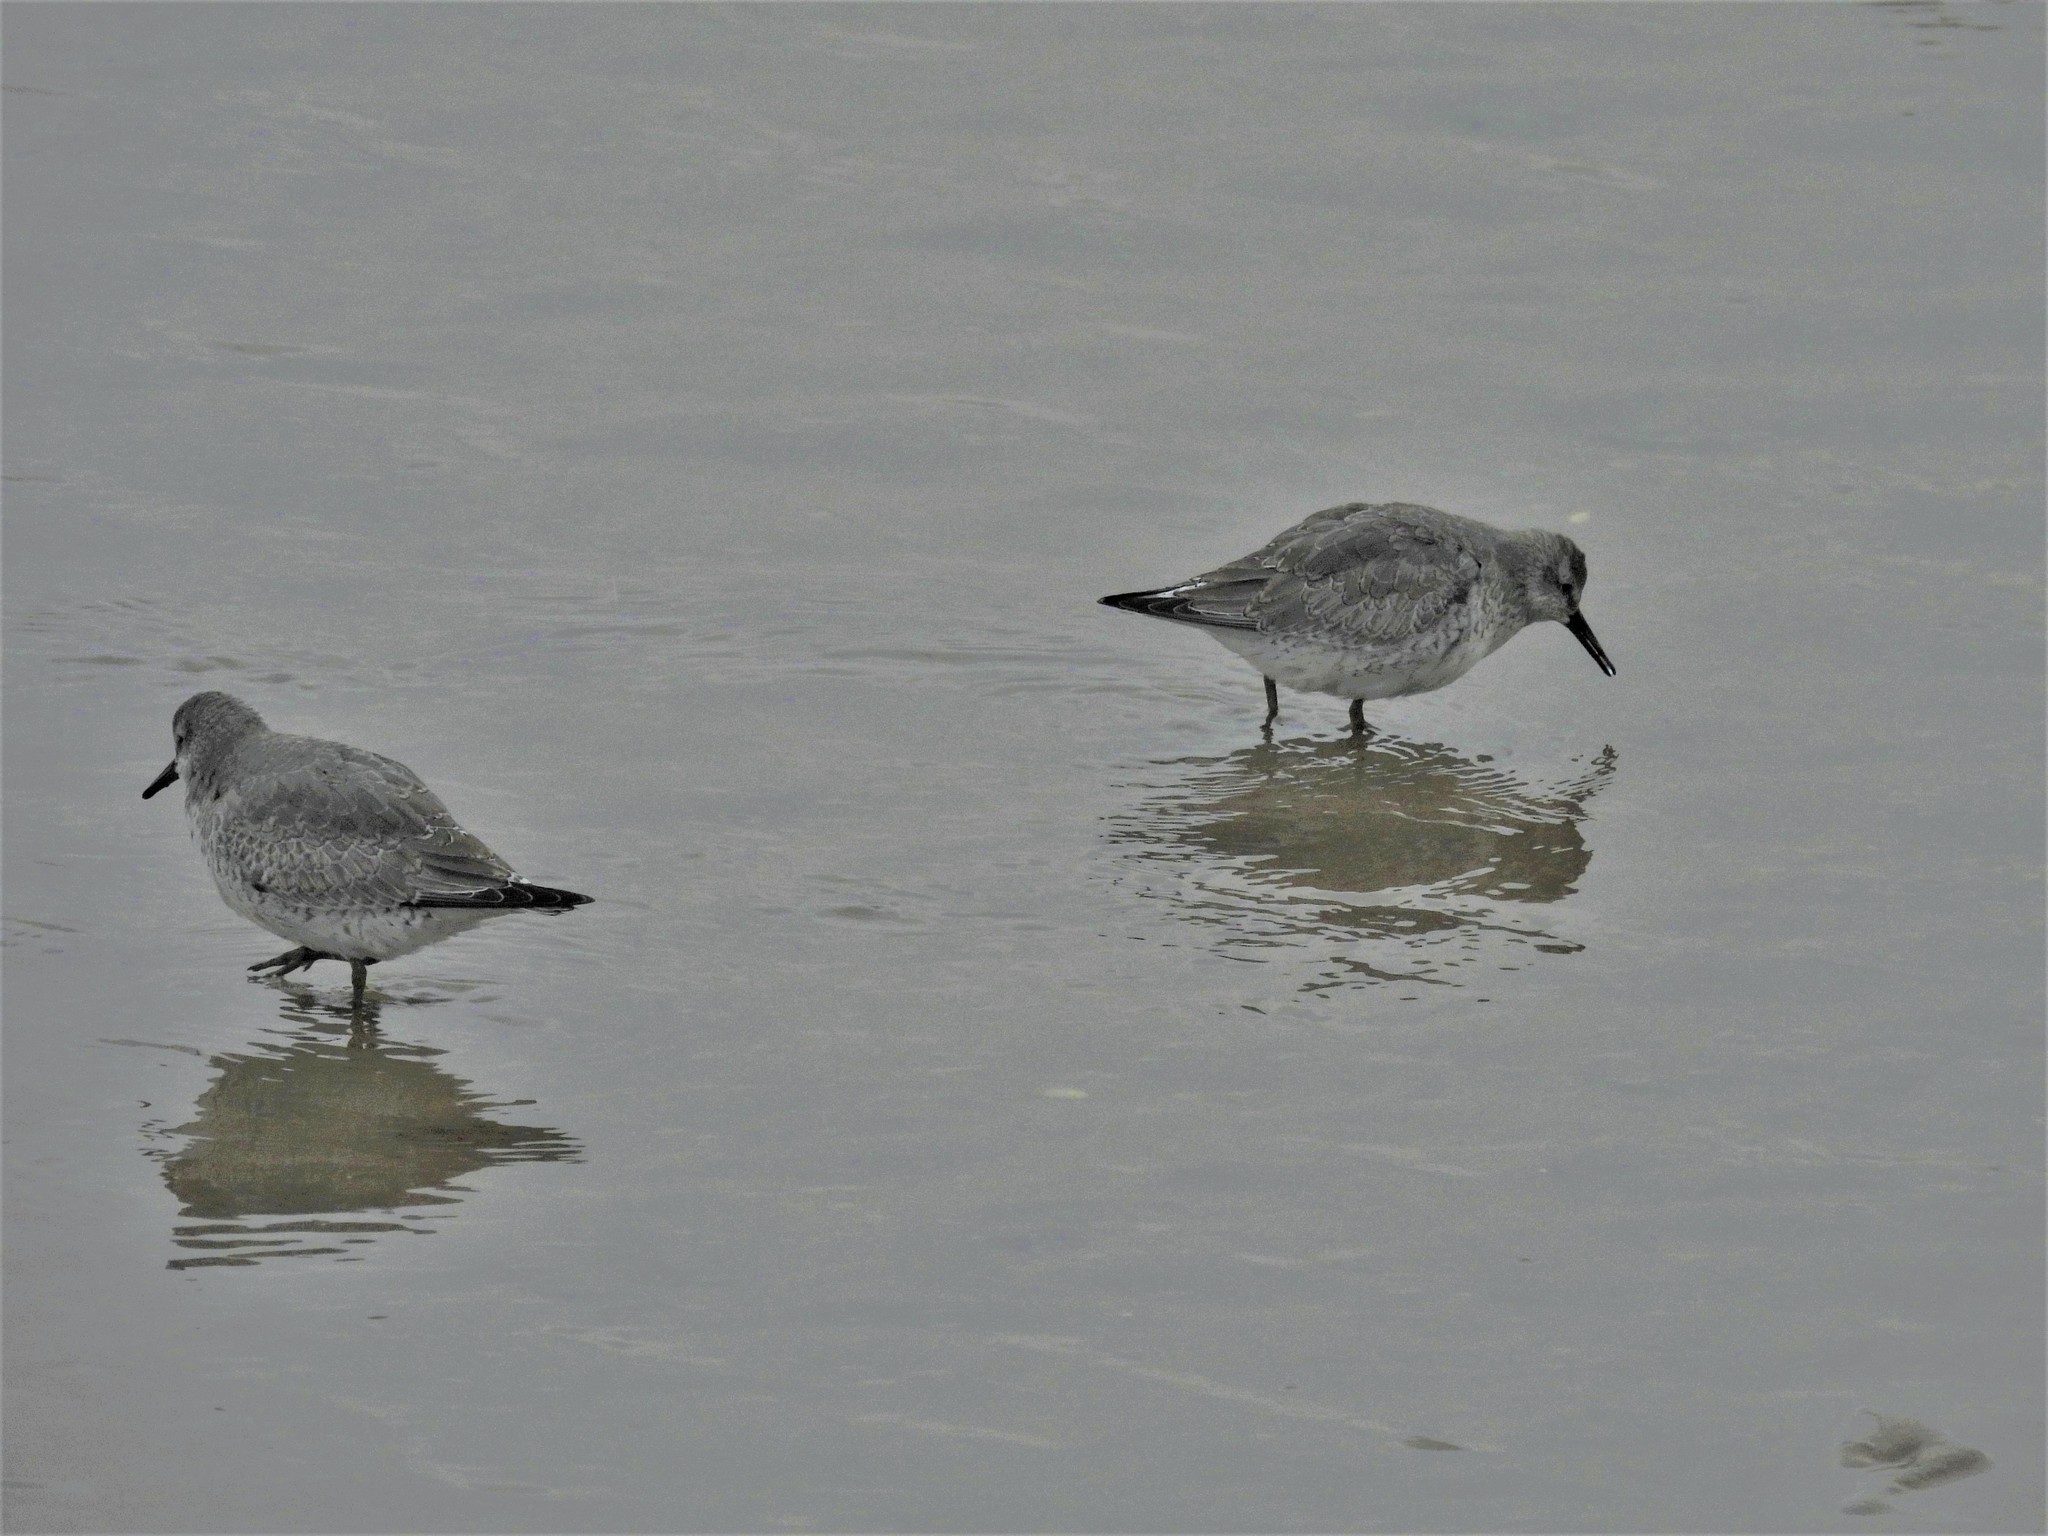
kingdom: Animalia
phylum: Chordata
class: Aves
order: Charadriiformes
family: Scolopacidae
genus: Calidris
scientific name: Calidris canutus
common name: Red knot
